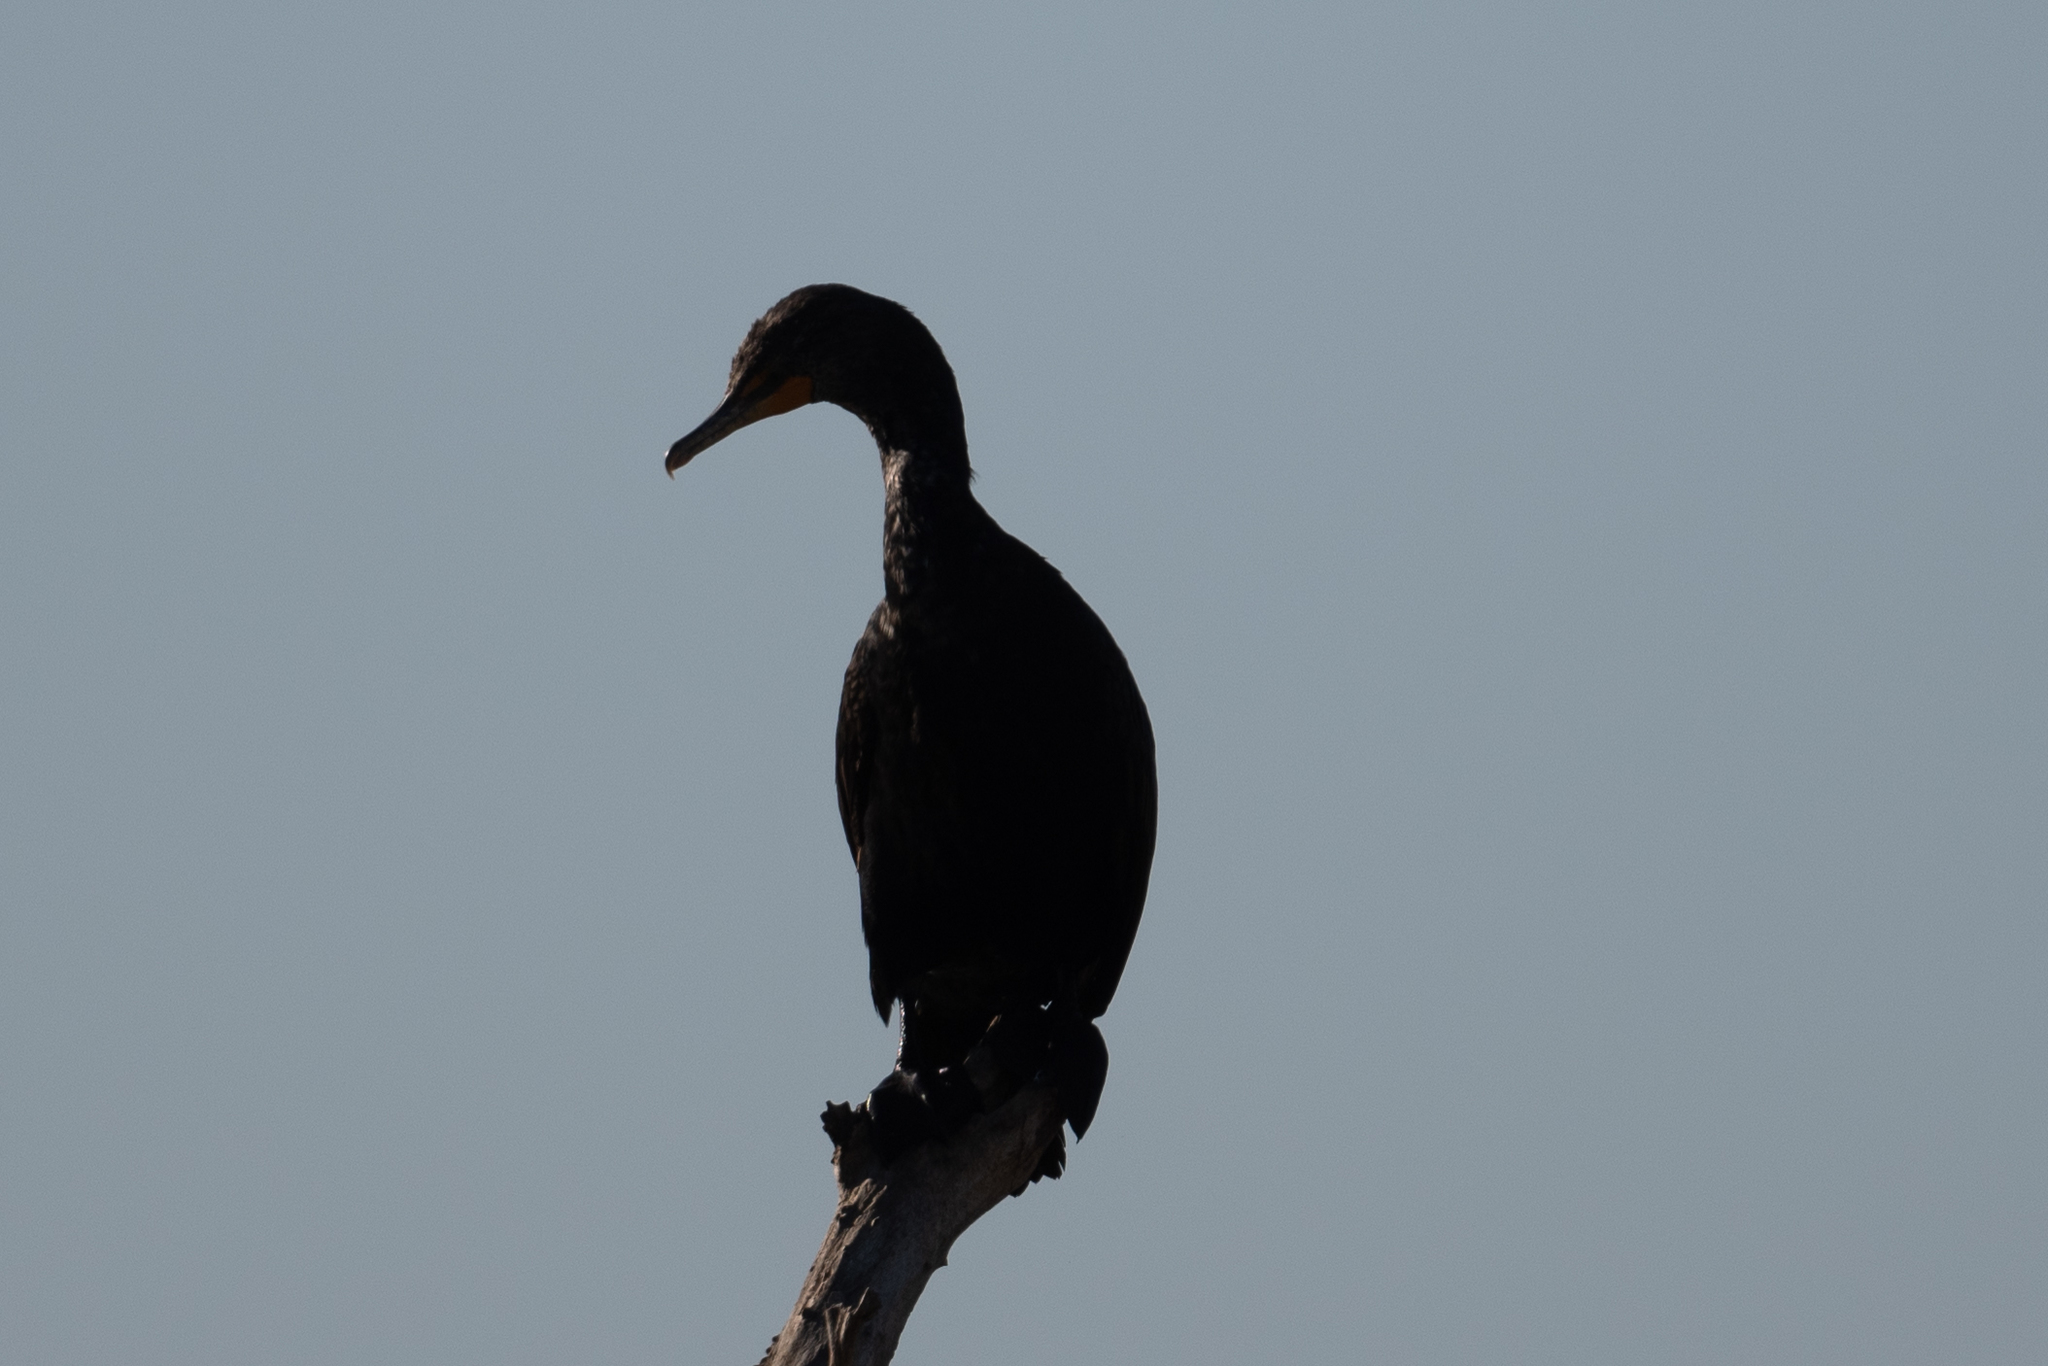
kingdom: Animalia
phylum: Chordata
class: Aves
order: Suliformes
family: Phalacrocoracidae
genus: Phalacrocorax
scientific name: Phalacrocorax auritus
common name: Double-crested cormorant
